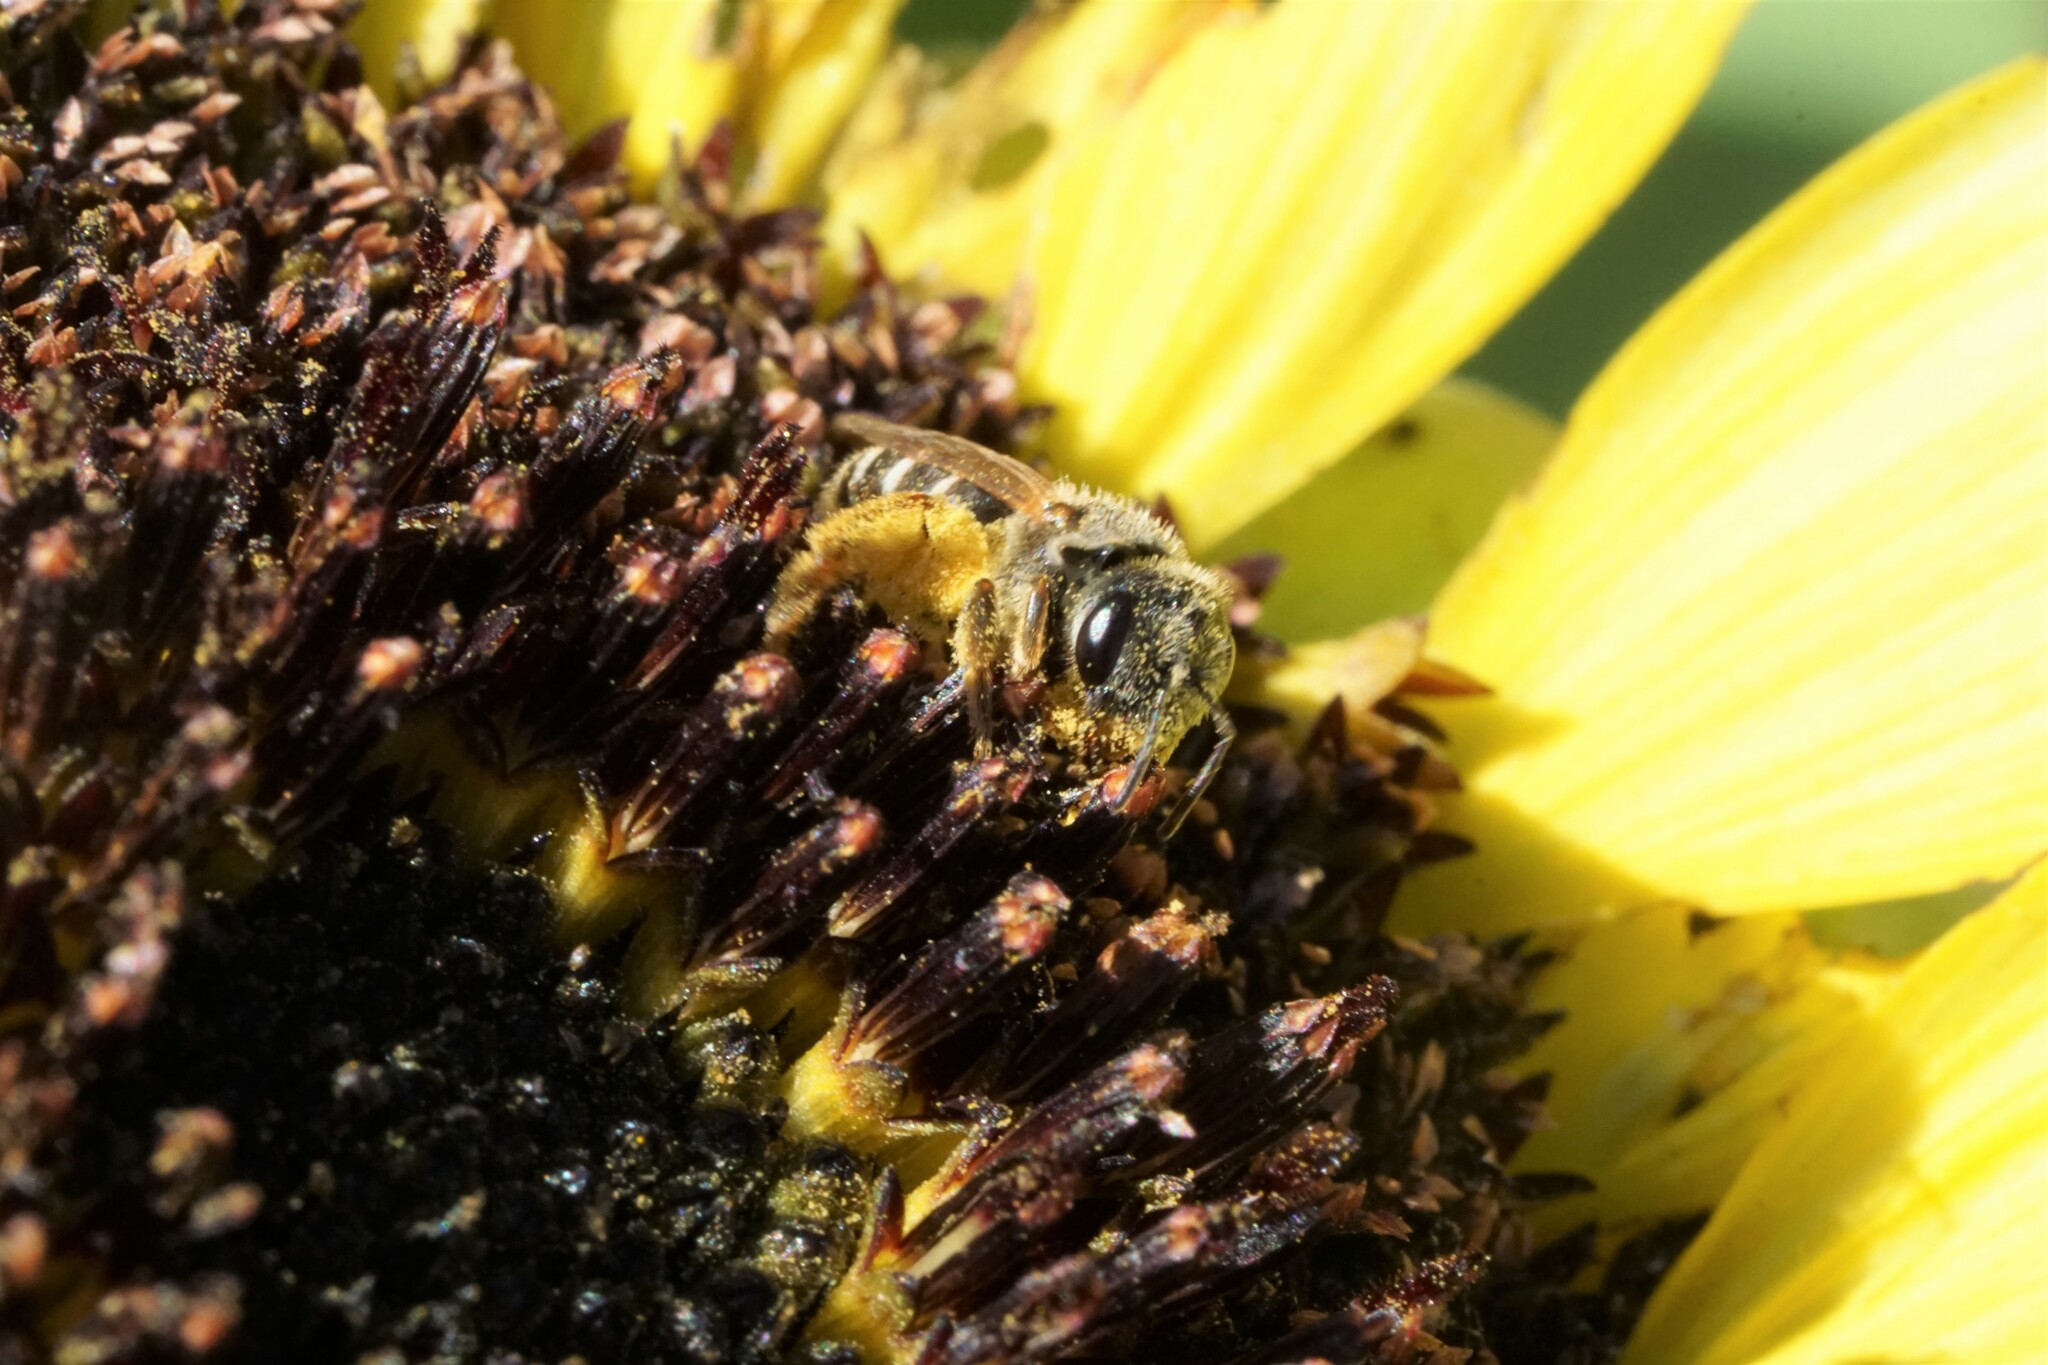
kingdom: Animalia
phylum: Arthropoda
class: Insecta
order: Hymenoptera
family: Halictidae
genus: Halictus
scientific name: Halictus ligatus
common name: Ligated furrow bee
